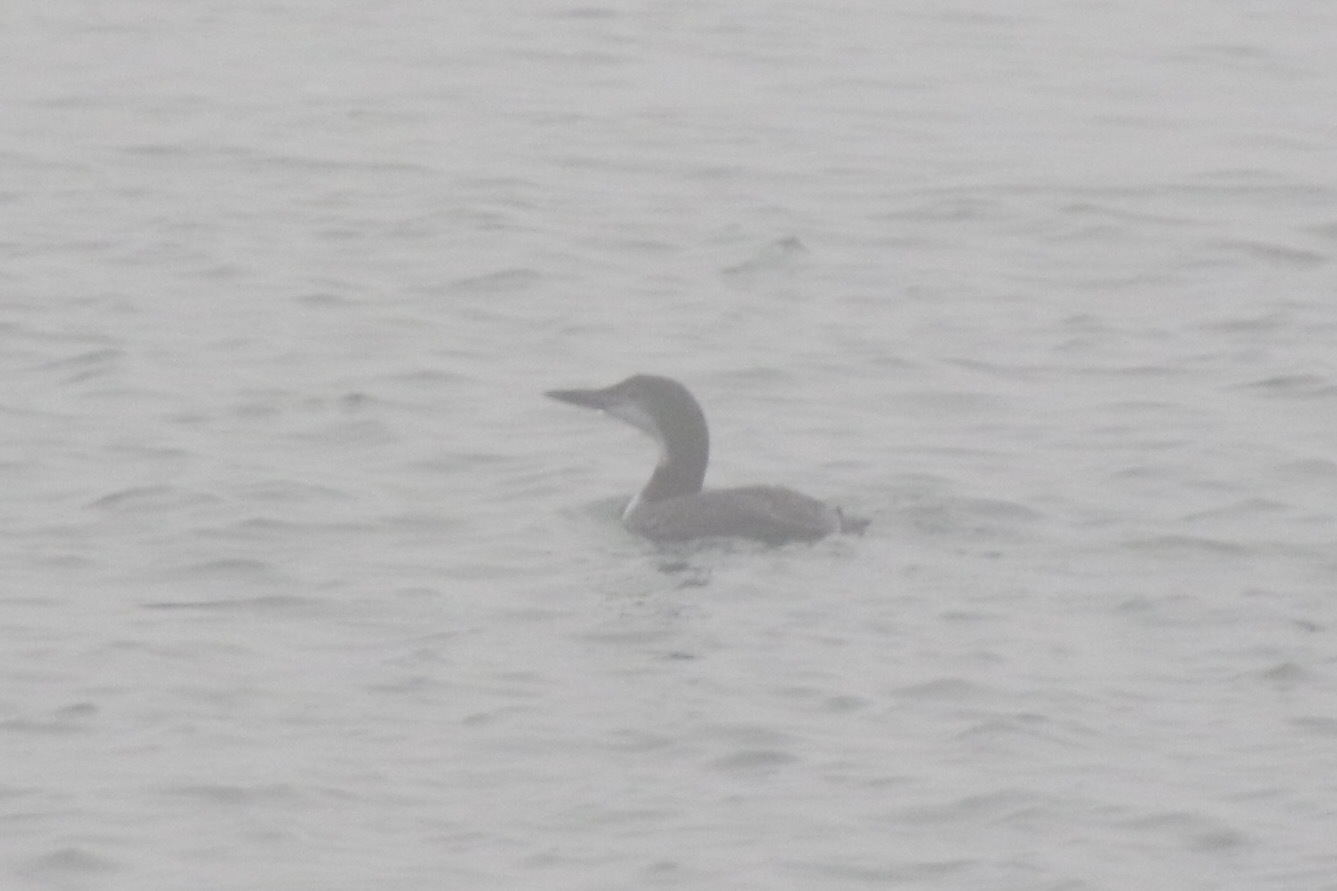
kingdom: Animalia
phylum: Chordata
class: Aves
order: Gaviiformes
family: Gaviidae
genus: Gavia
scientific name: Gavia immer
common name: Common loon
